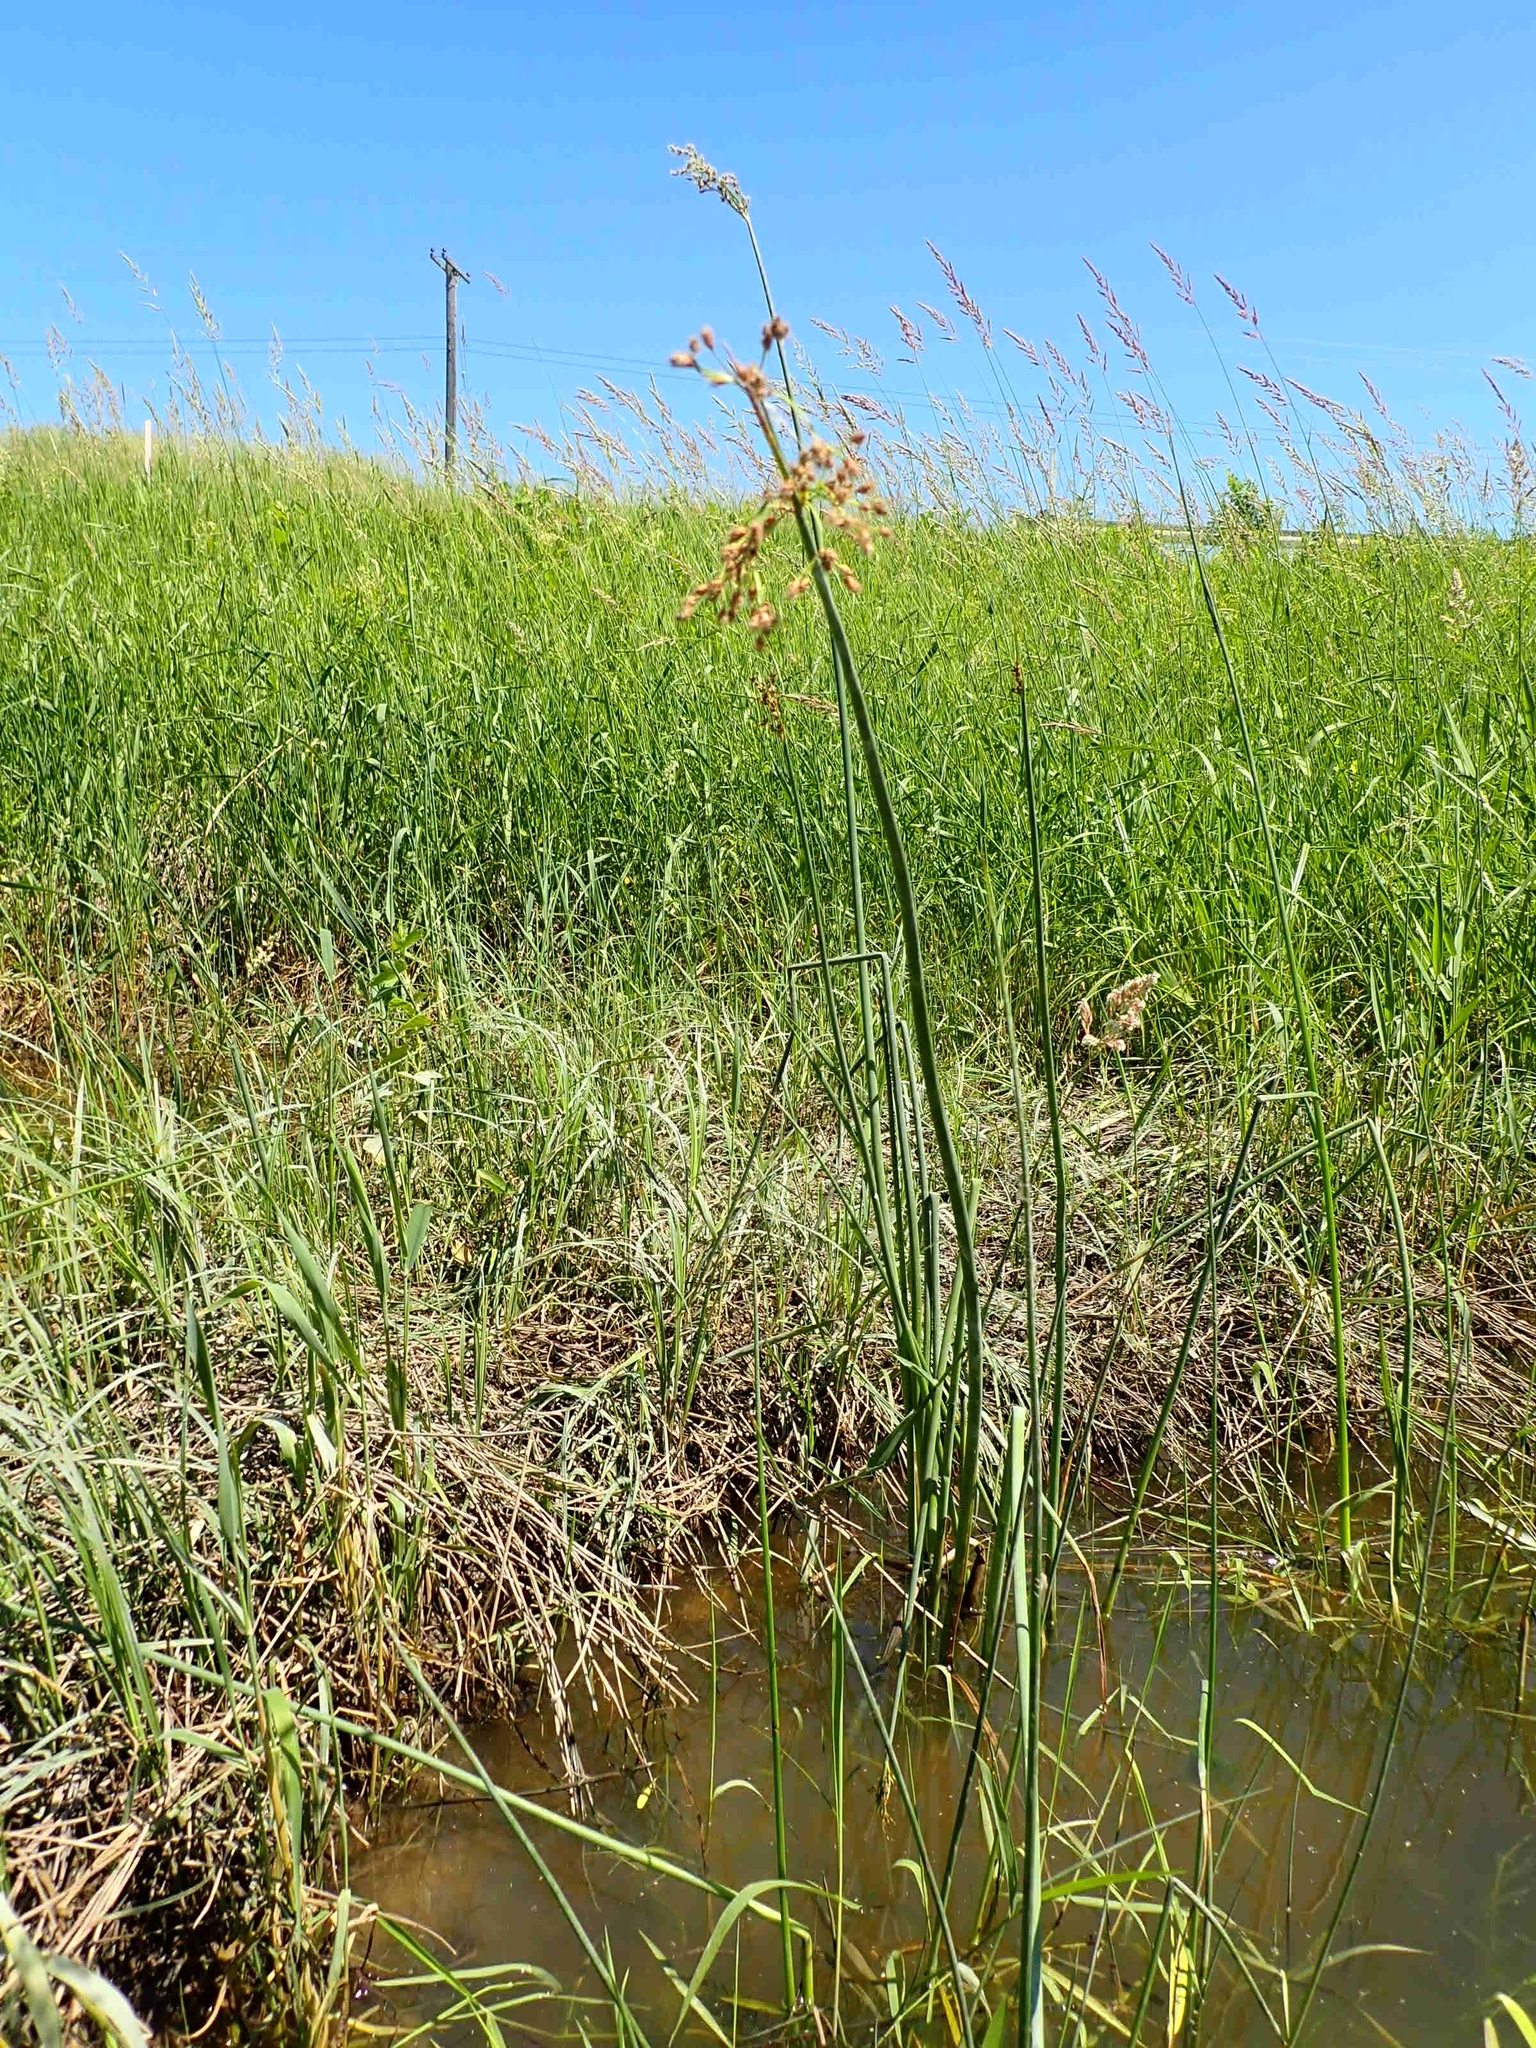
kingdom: Plantae
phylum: Tracheophyta
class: Liliopsida
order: Poales
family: Cyperaceae
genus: Schoenoplectus
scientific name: Schoenoplectus tabernaemontani
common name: Grey club-rush
